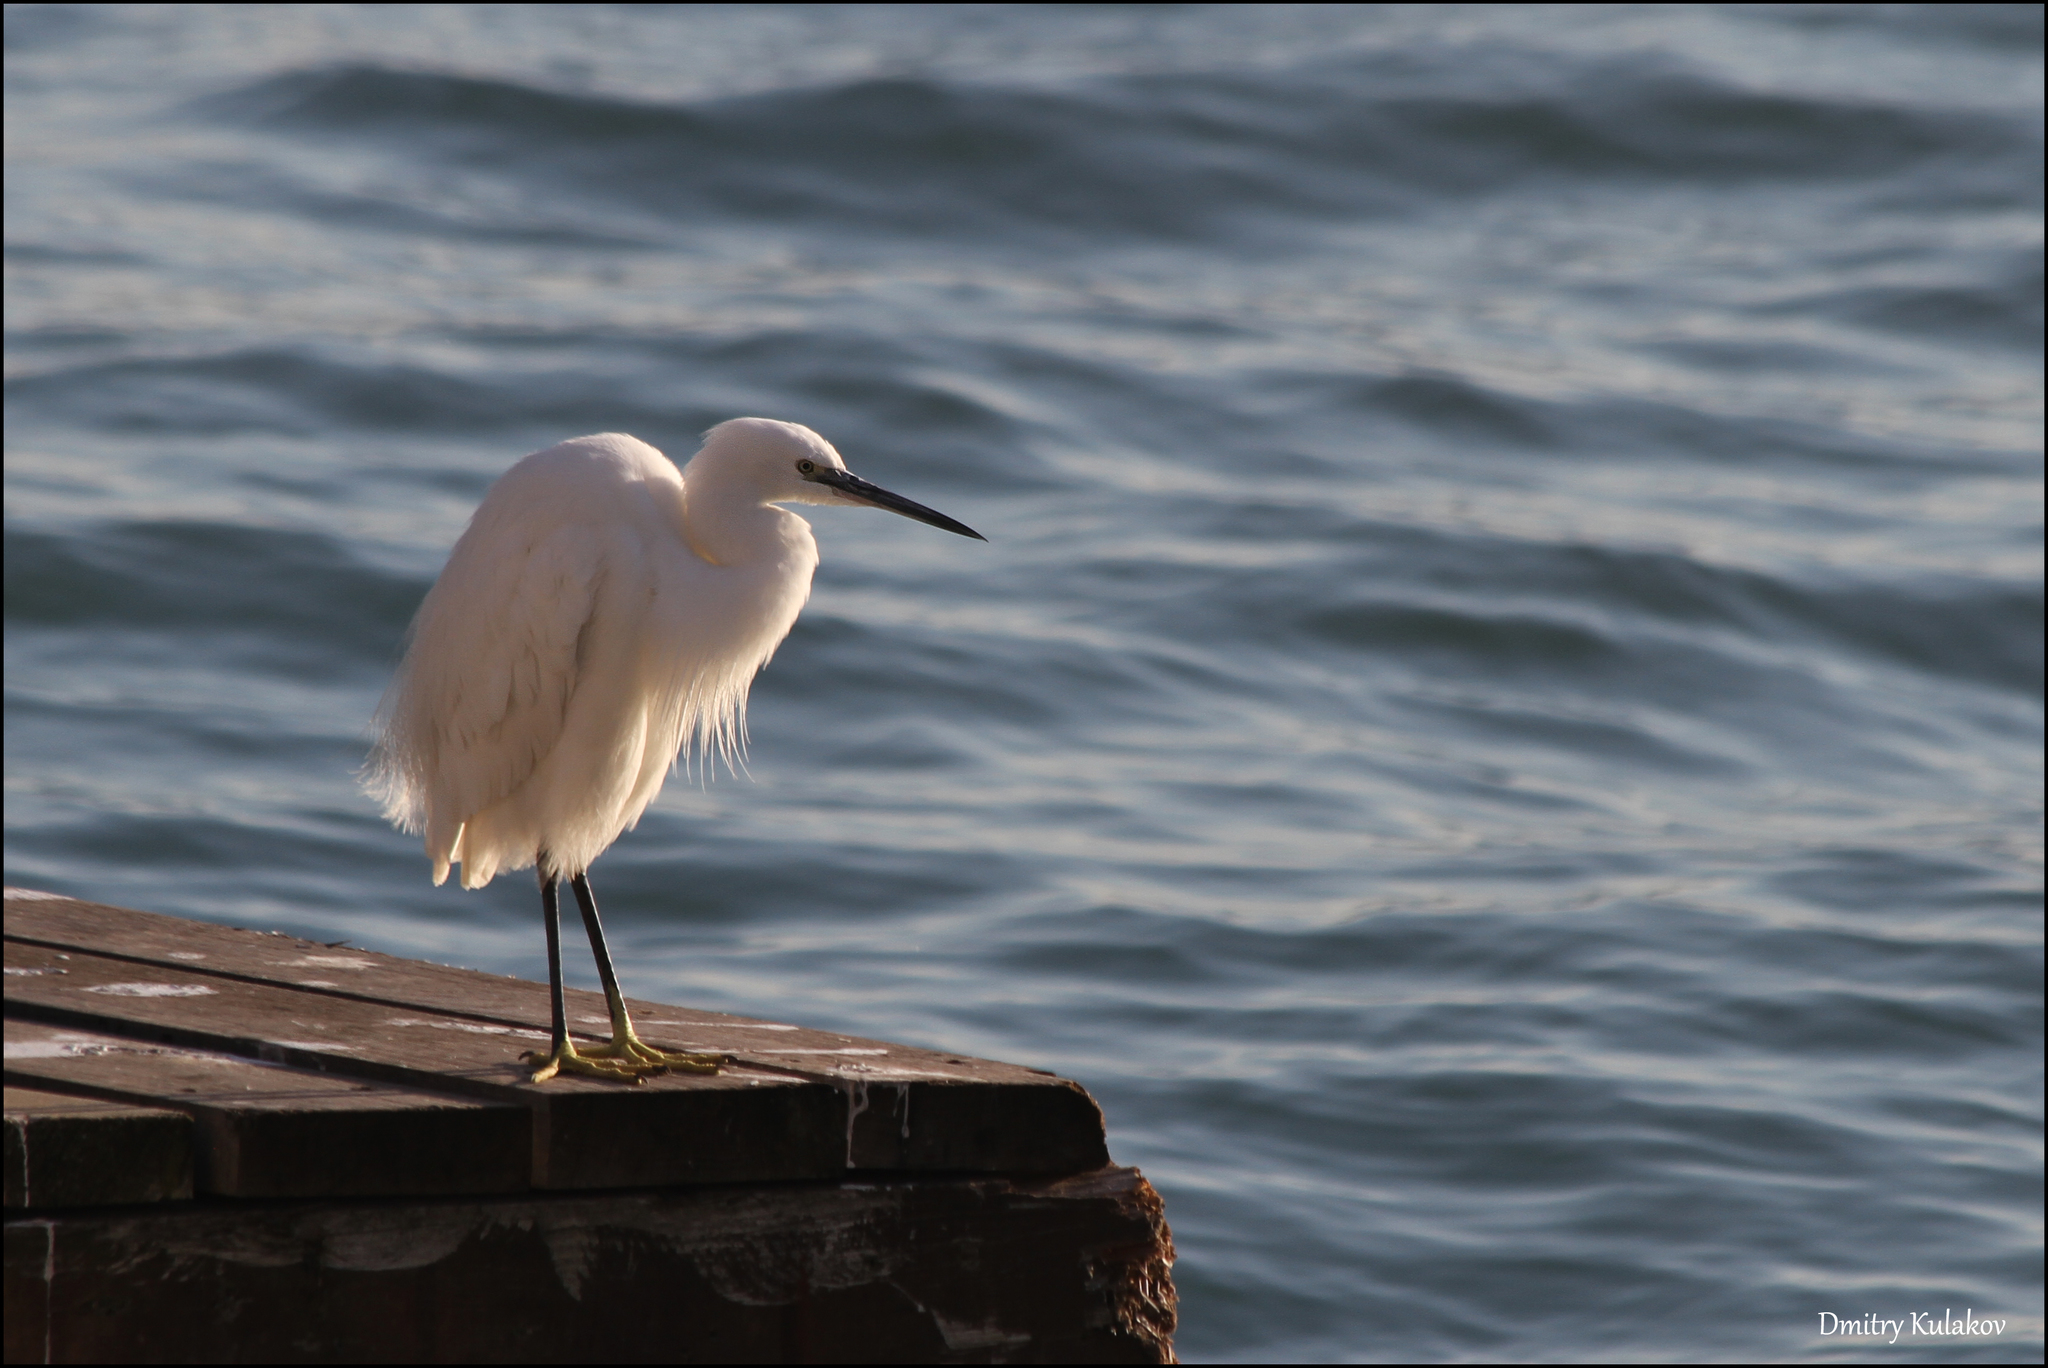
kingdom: Animalia
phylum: Chordata
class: Aves
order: Pelecaniformes
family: Ardeidae
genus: Egretta
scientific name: Egretta garzetta
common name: Little egret
